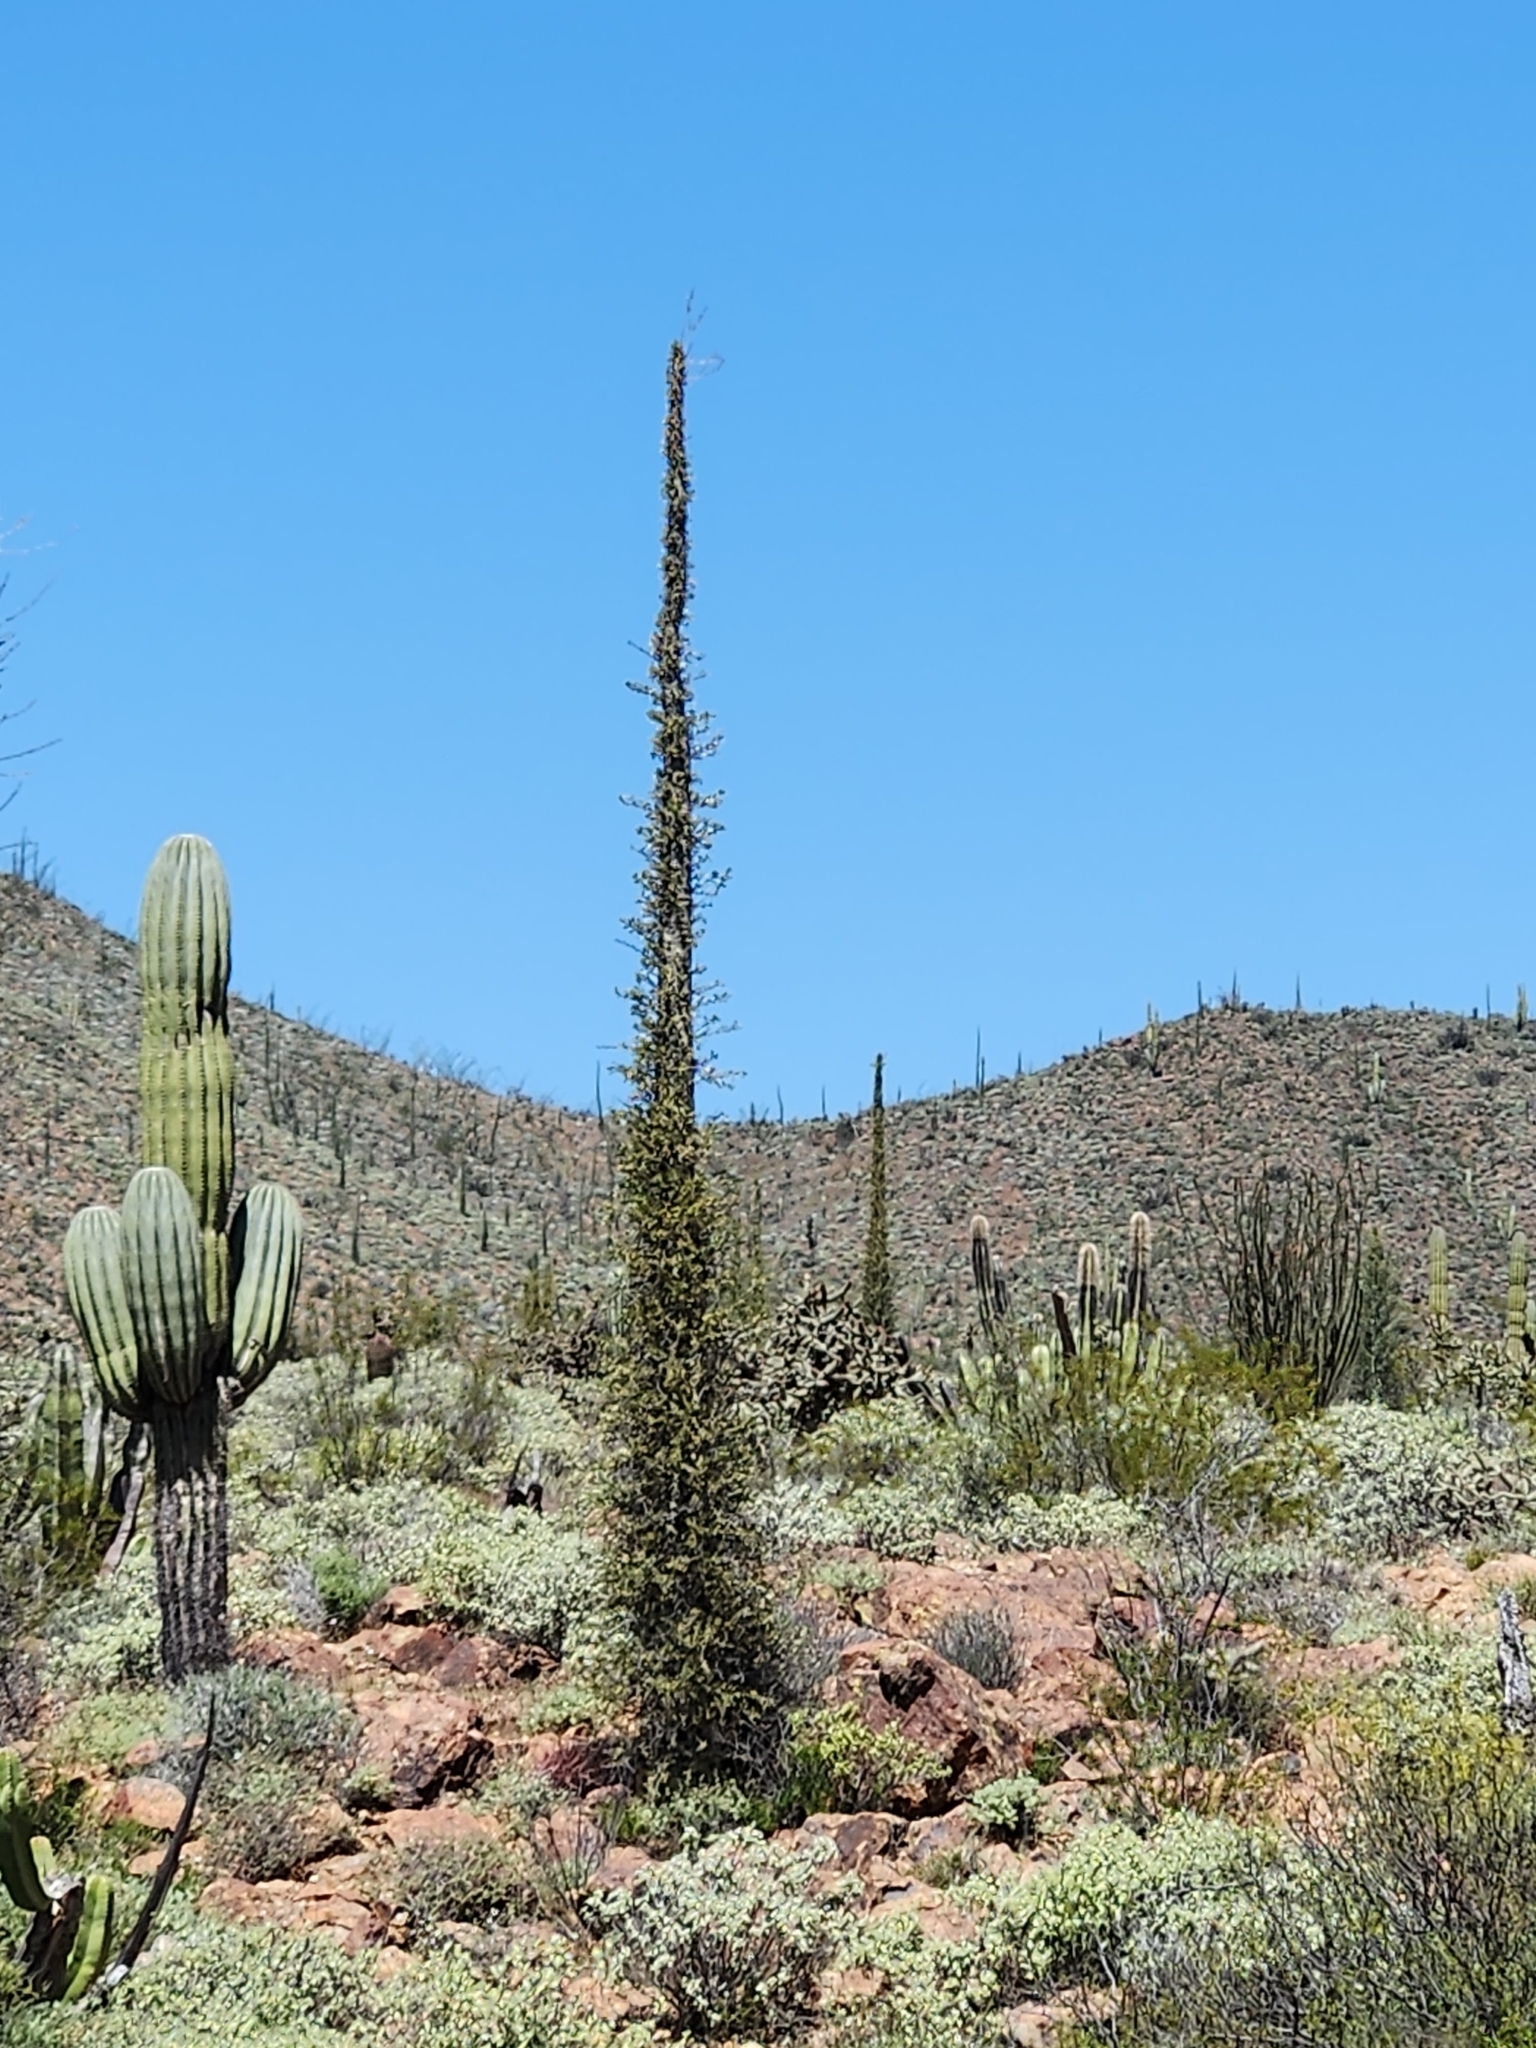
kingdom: Plantae
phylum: Tracheophyta
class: Magnoliopsida
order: Ericales
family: Fouquieriaceae
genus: Fouquieria
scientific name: Fouquieria columnaris
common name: Boojumtree
